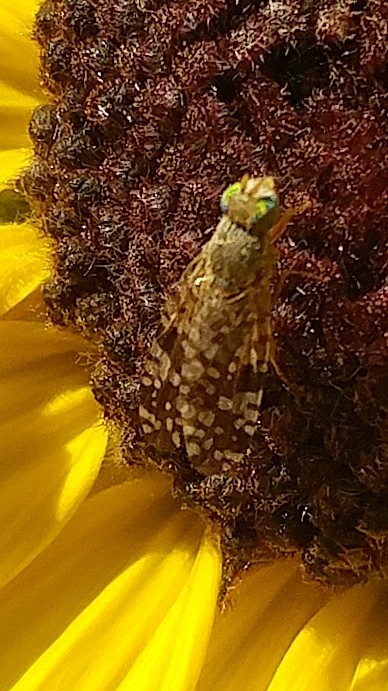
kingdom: Animalia
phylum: Arthropoda
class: Insecta
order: Diptera
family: Tephritidae
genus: Neotephritis
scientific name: Neotephritis finalis
